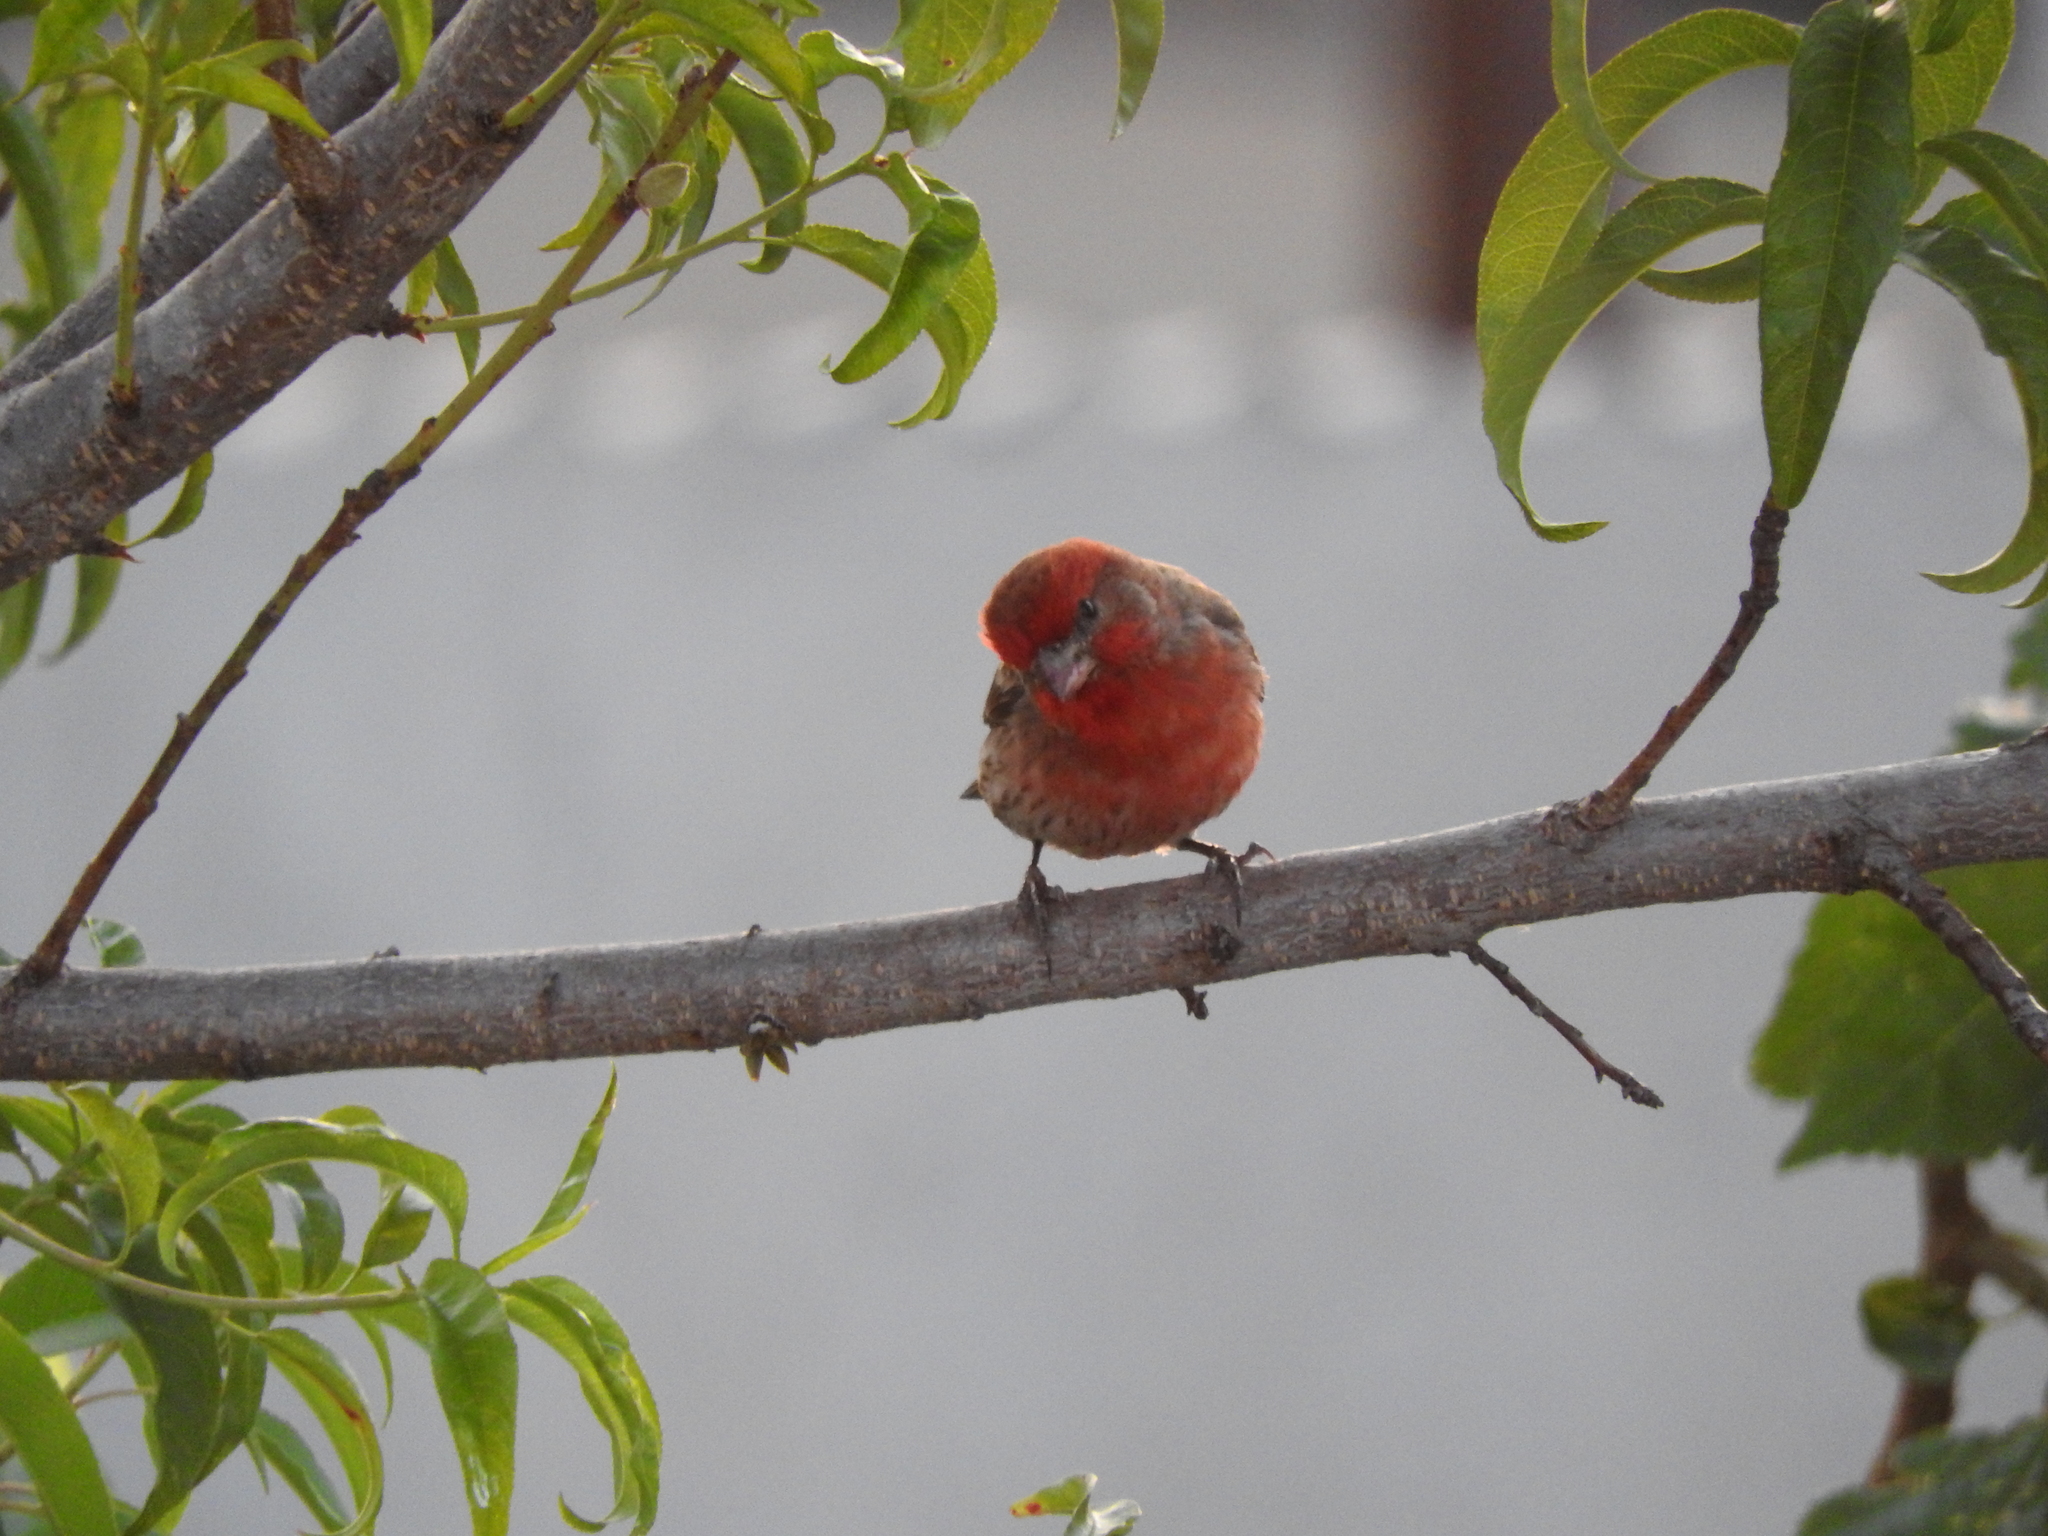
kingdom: Animalia
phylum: Chordata
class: Aves
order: Passeriformes
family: Fringillidae
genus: Haemorhous
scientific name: Haemorhous mexicanus
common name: House finch
